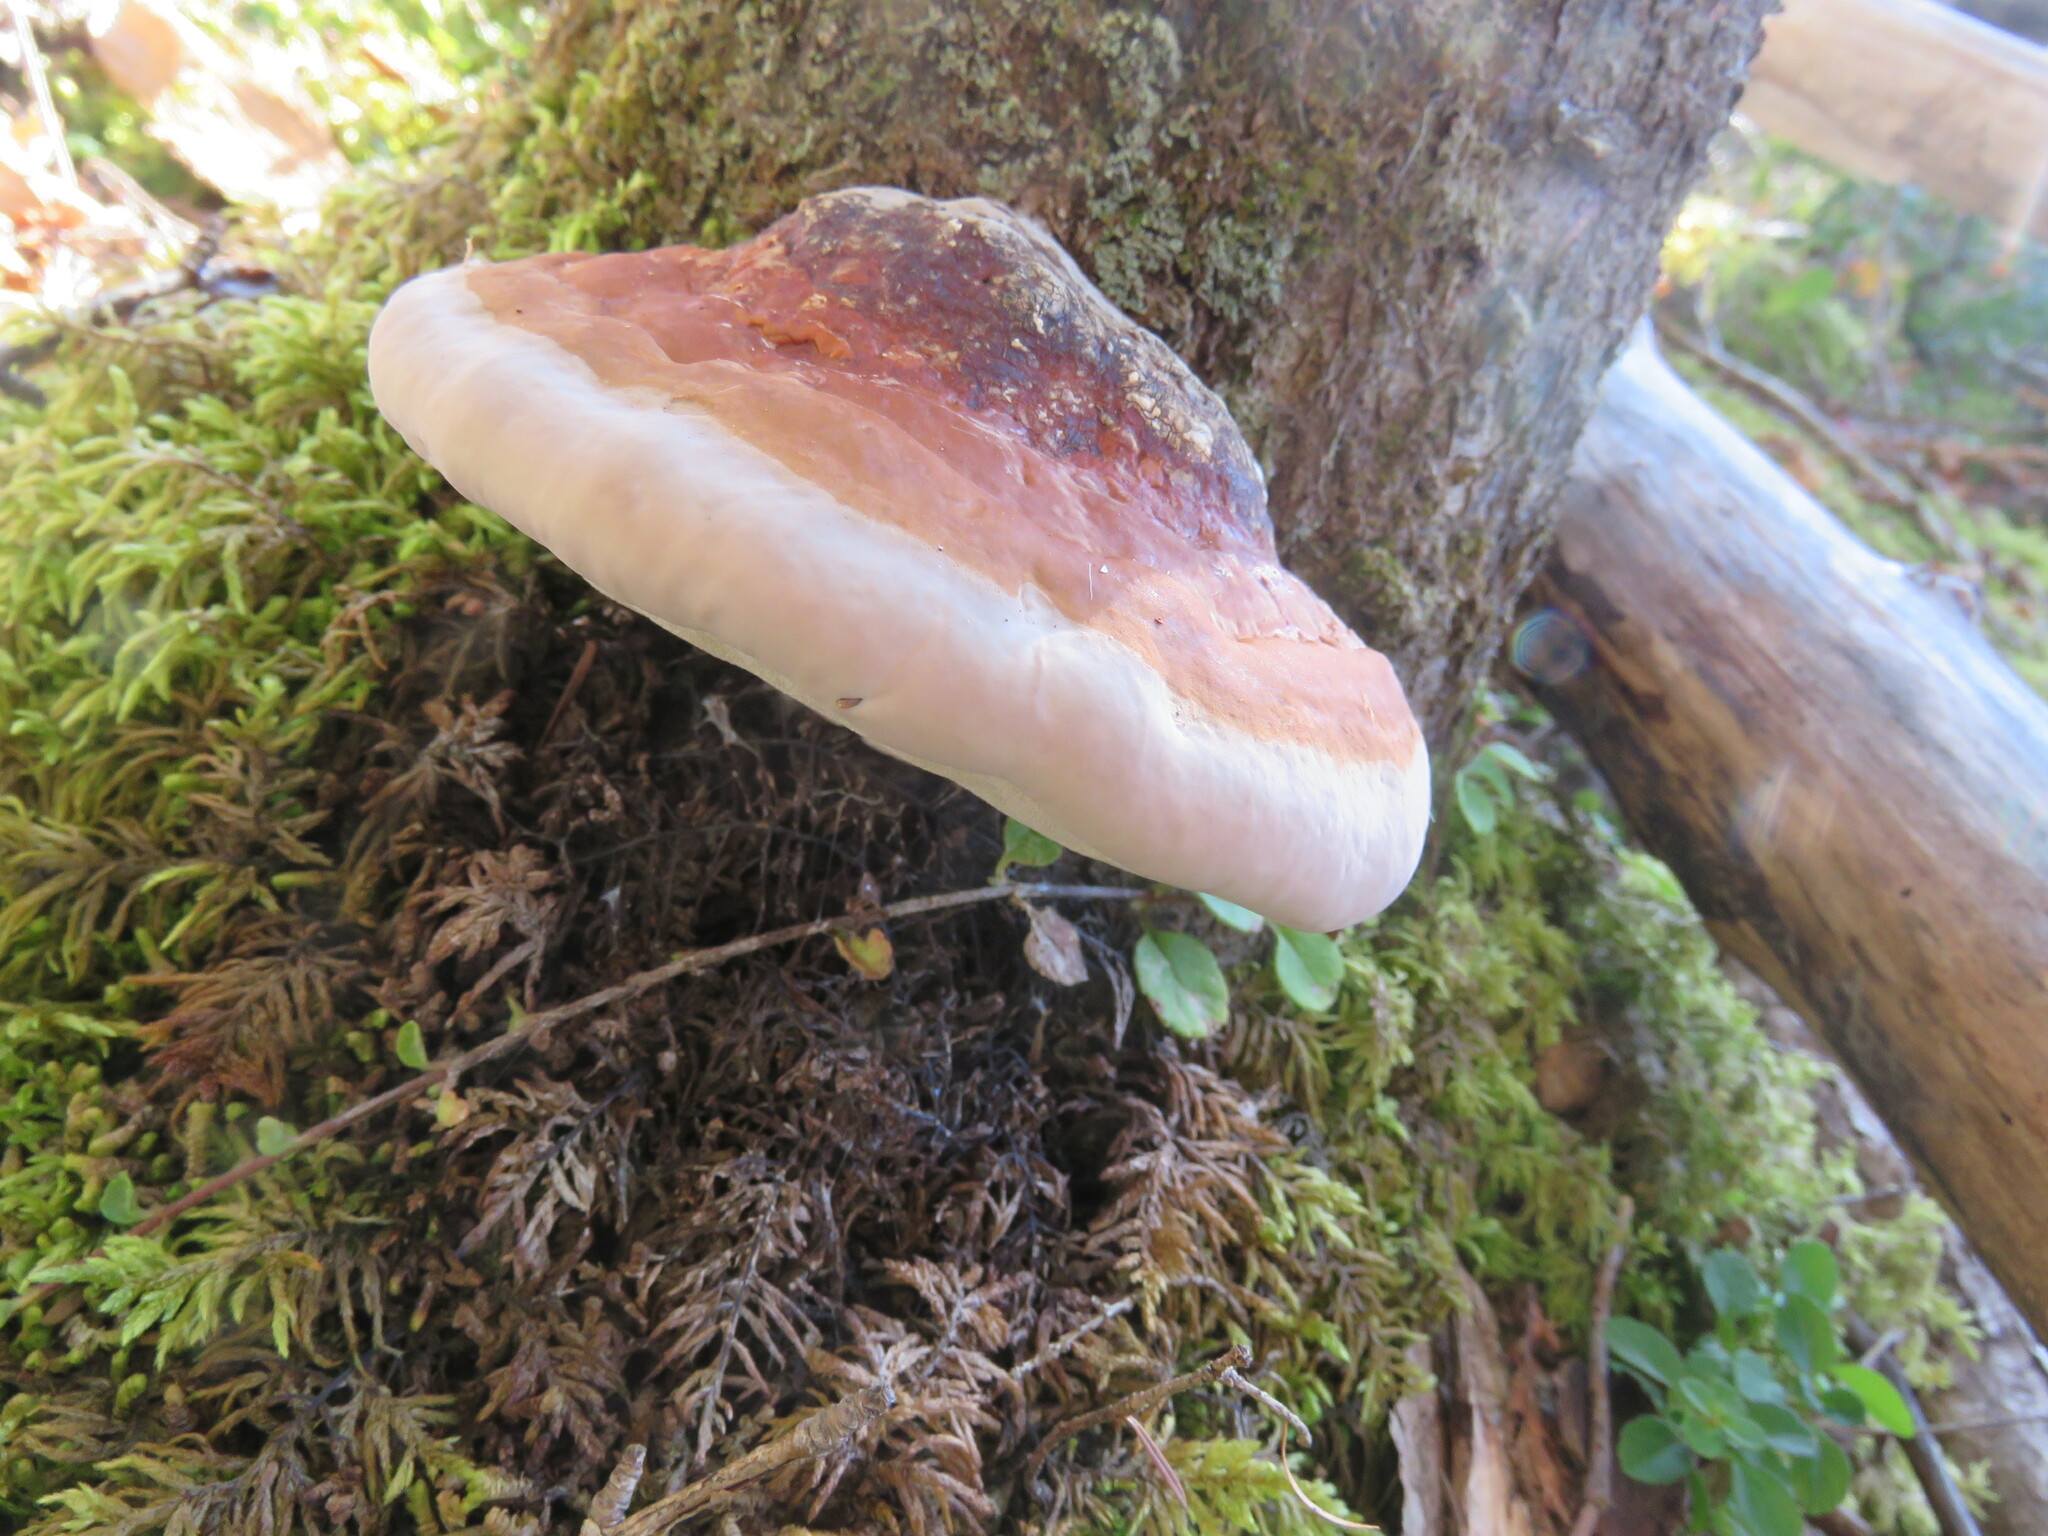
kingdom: Fungi
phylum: Basidiomycota
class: Agaricomycetes
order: Polyporales
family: Fomitopsidaceae
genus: Fomitopsis
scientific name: Fomitopsis mounceae
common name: Northern red belt
